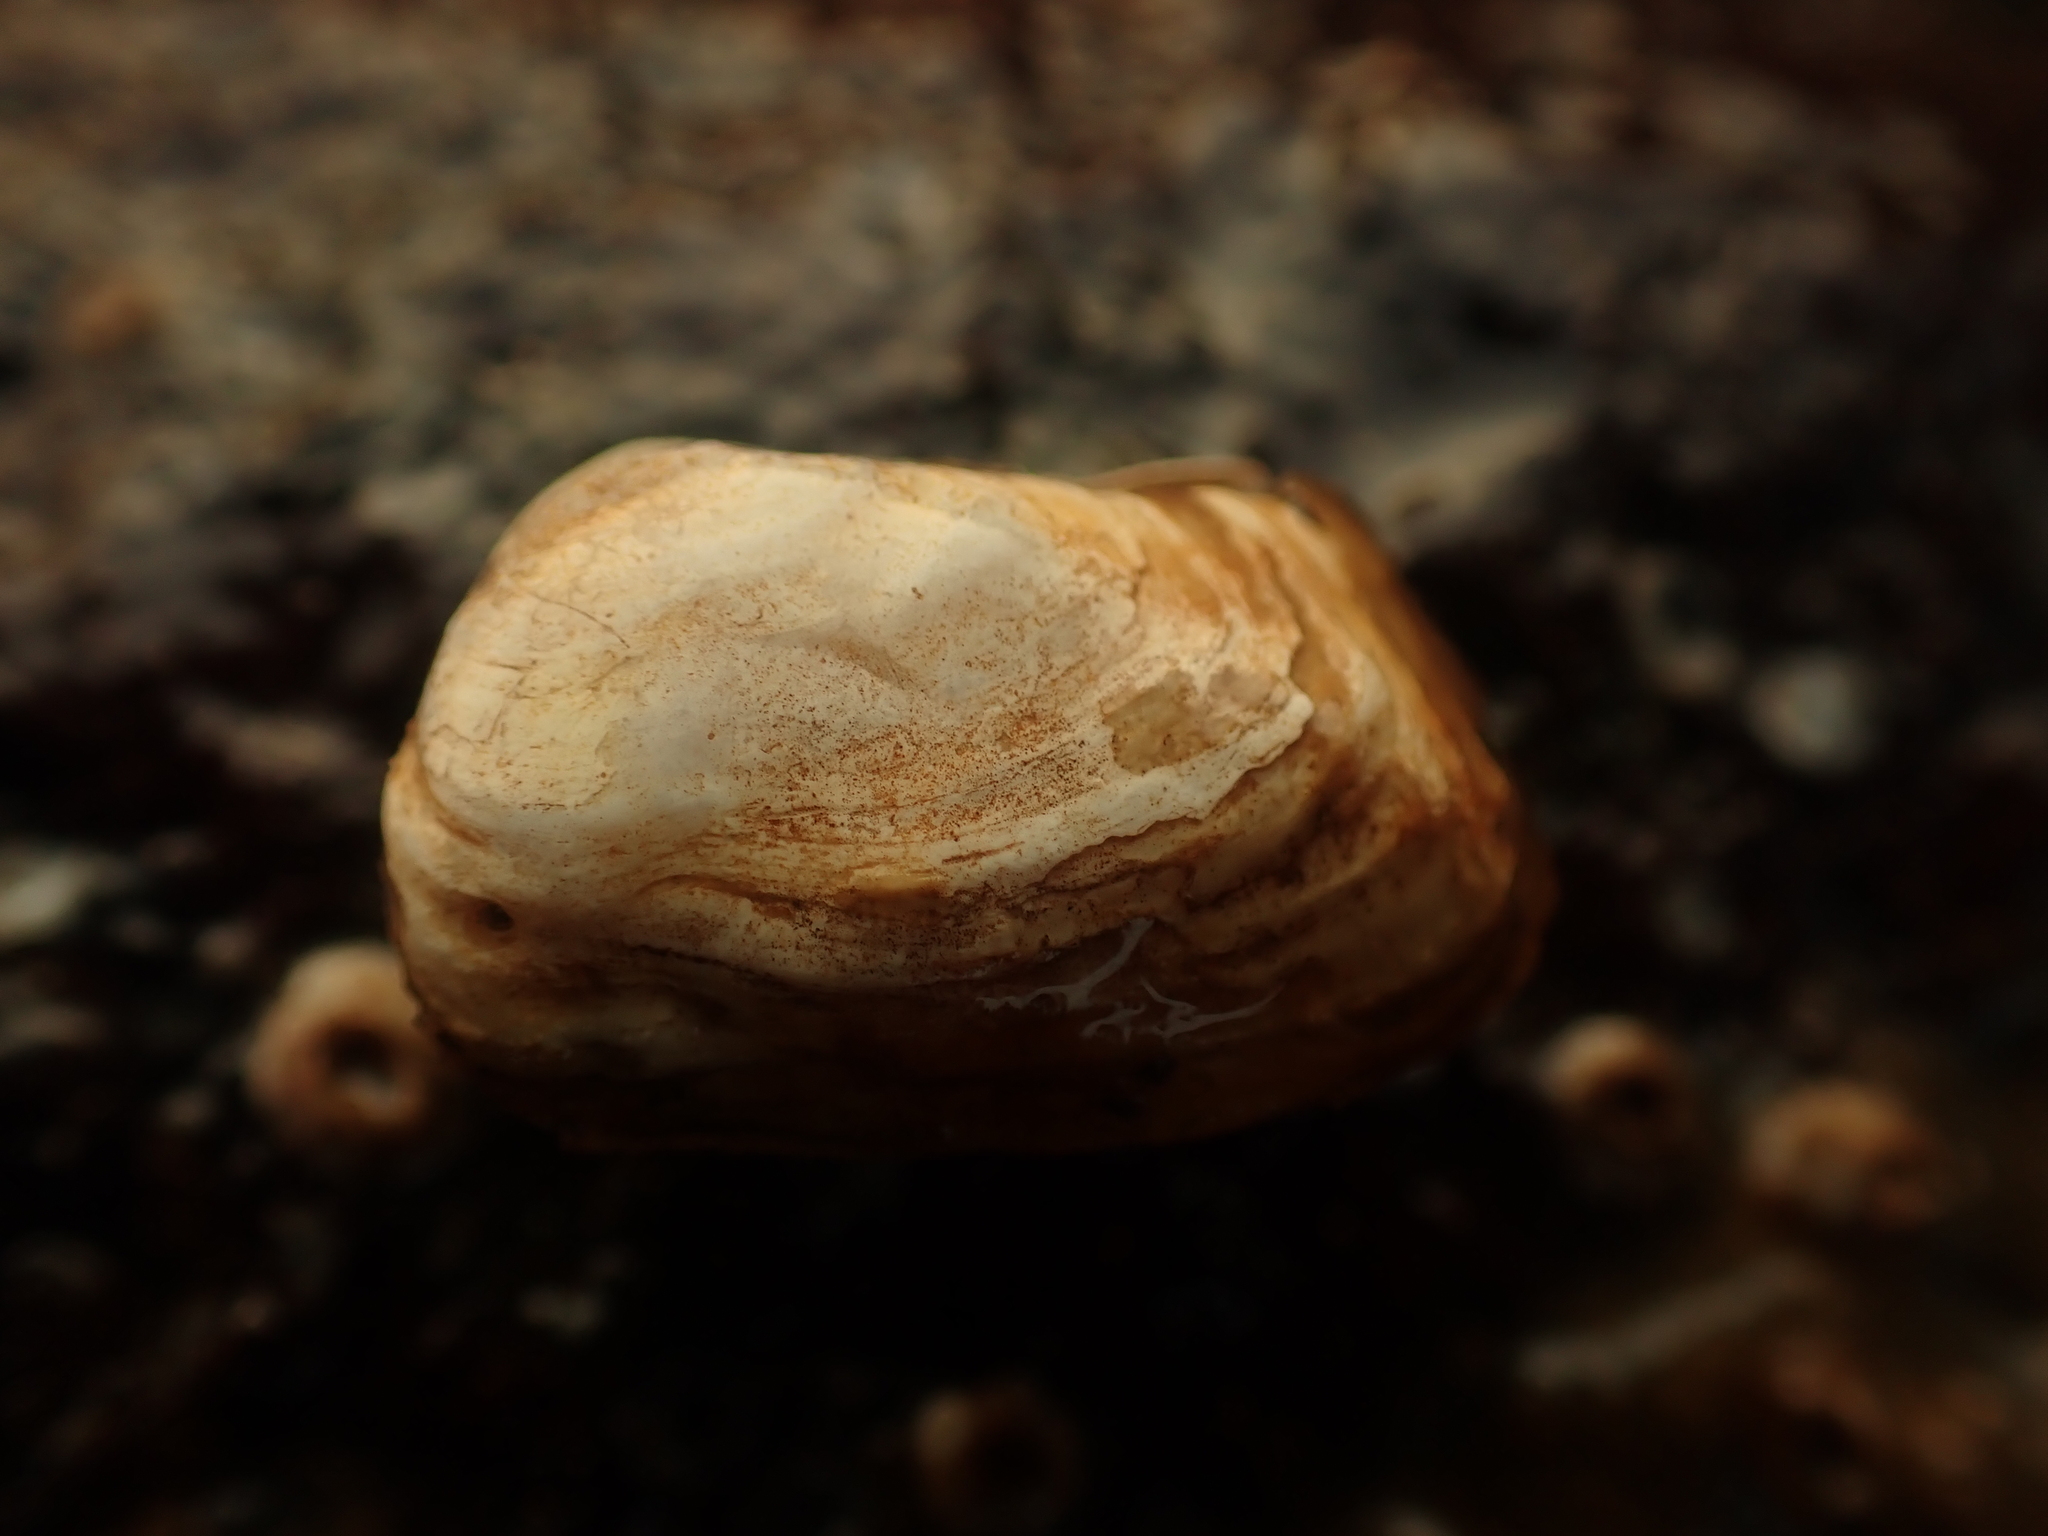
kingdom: Animalia
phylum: Mollusca
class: Bivalvia
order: Adapedonta
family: Hiatellidae
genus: Hiatella
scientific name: Hiatella arctica
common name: Arctic hiatella
